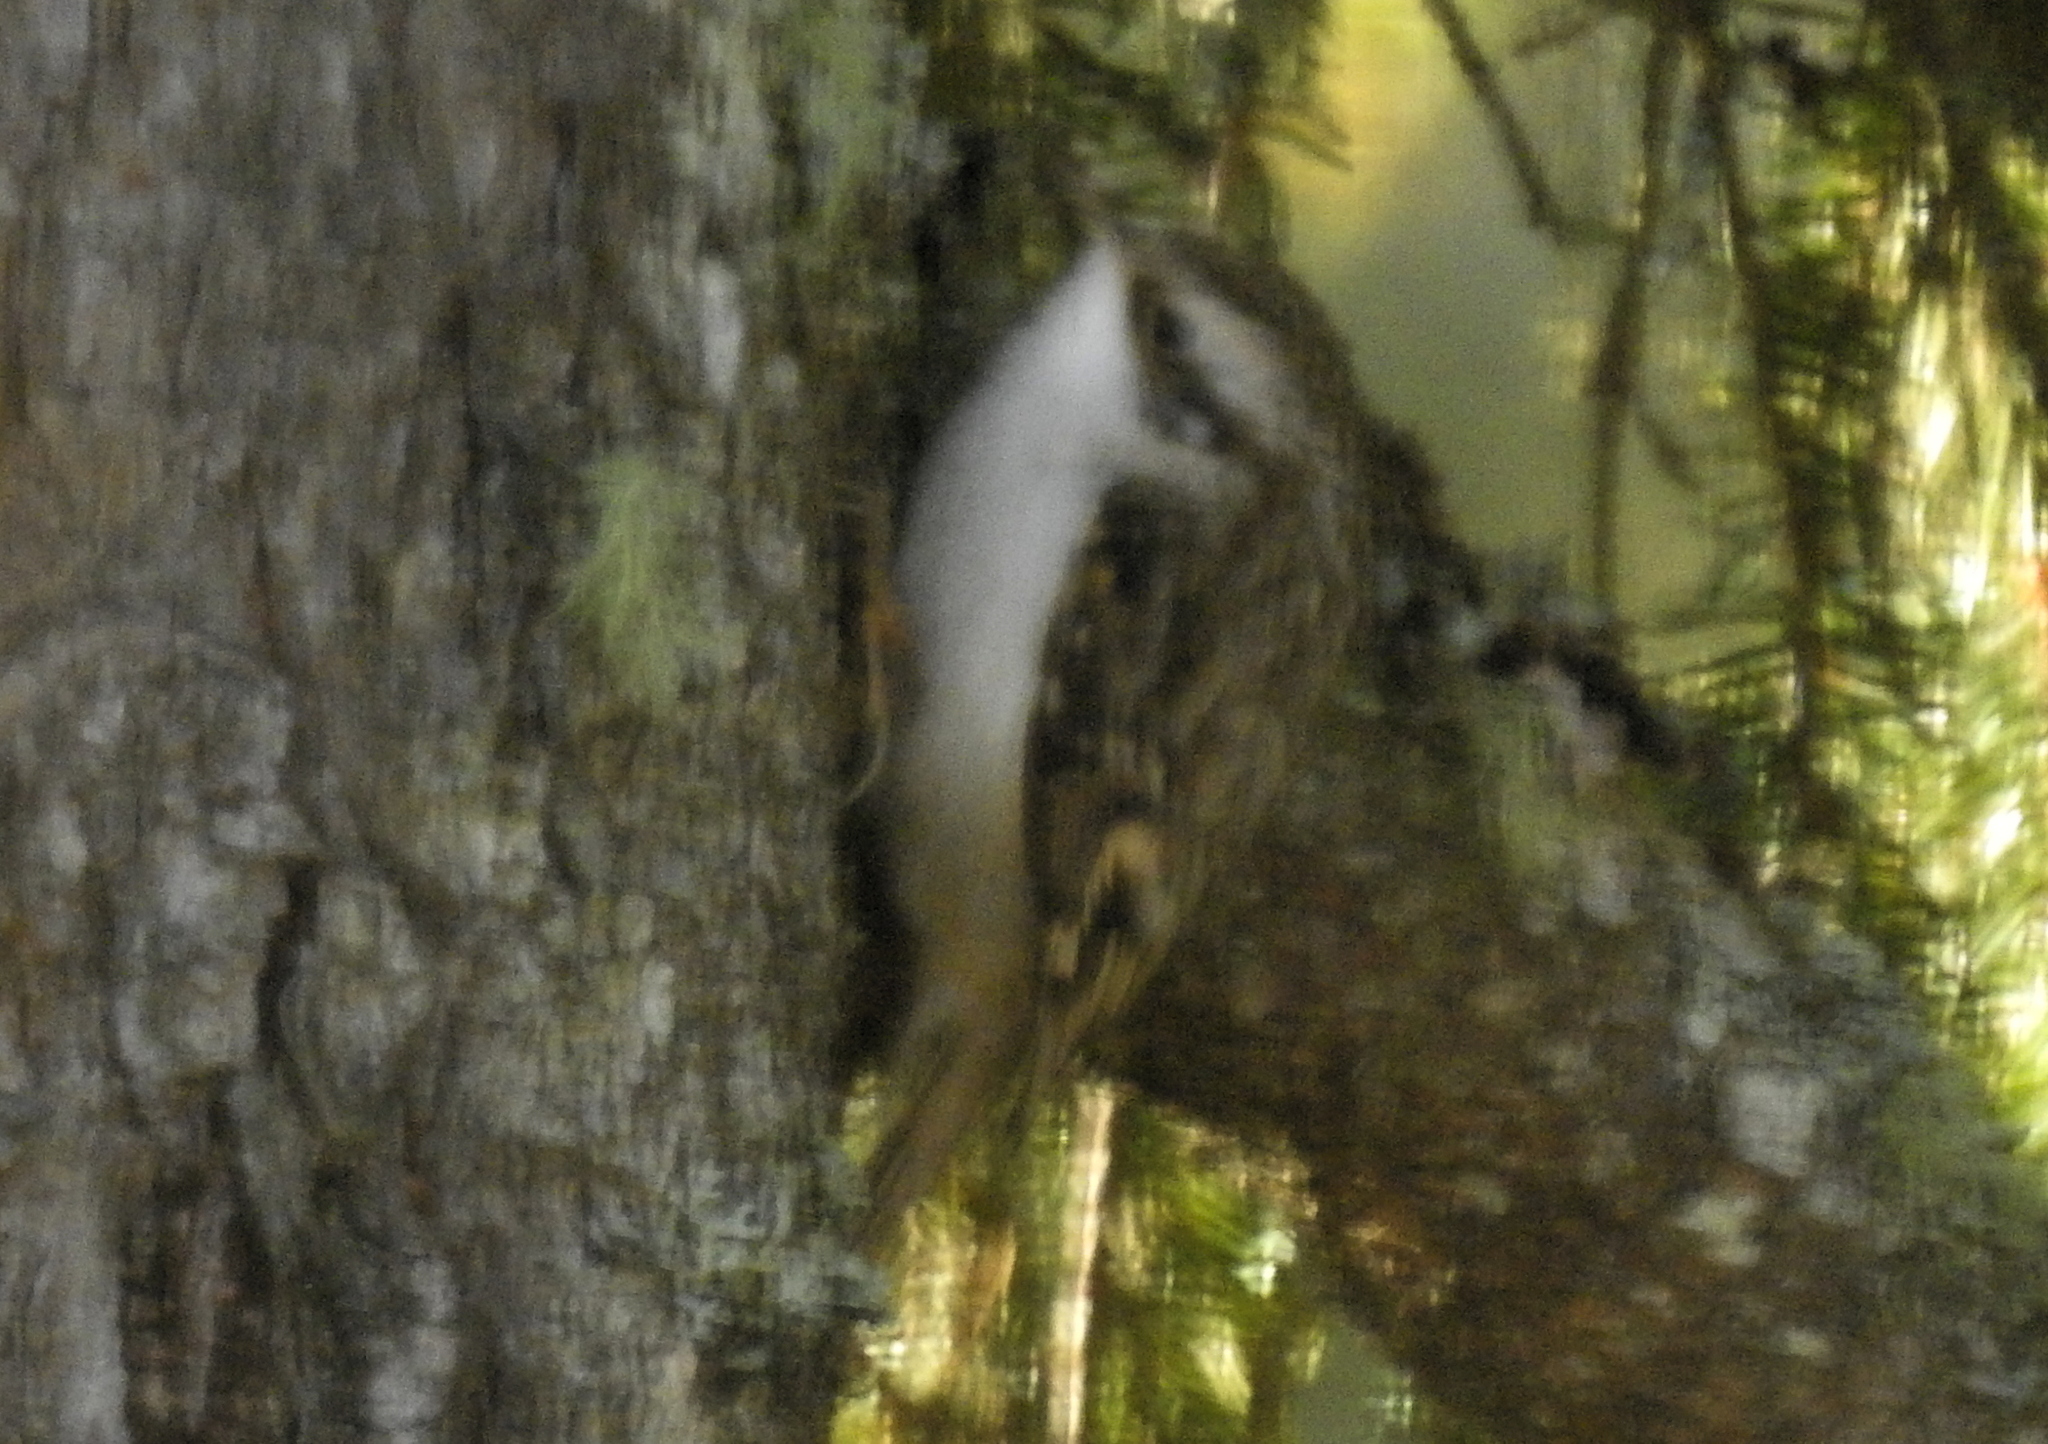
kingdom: Animalia
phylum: Chordata
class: Aves
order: Passeriformes
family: Certhiidae
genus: Certhia
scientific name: Certhia familiaris
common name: Eurasian treecreeper
